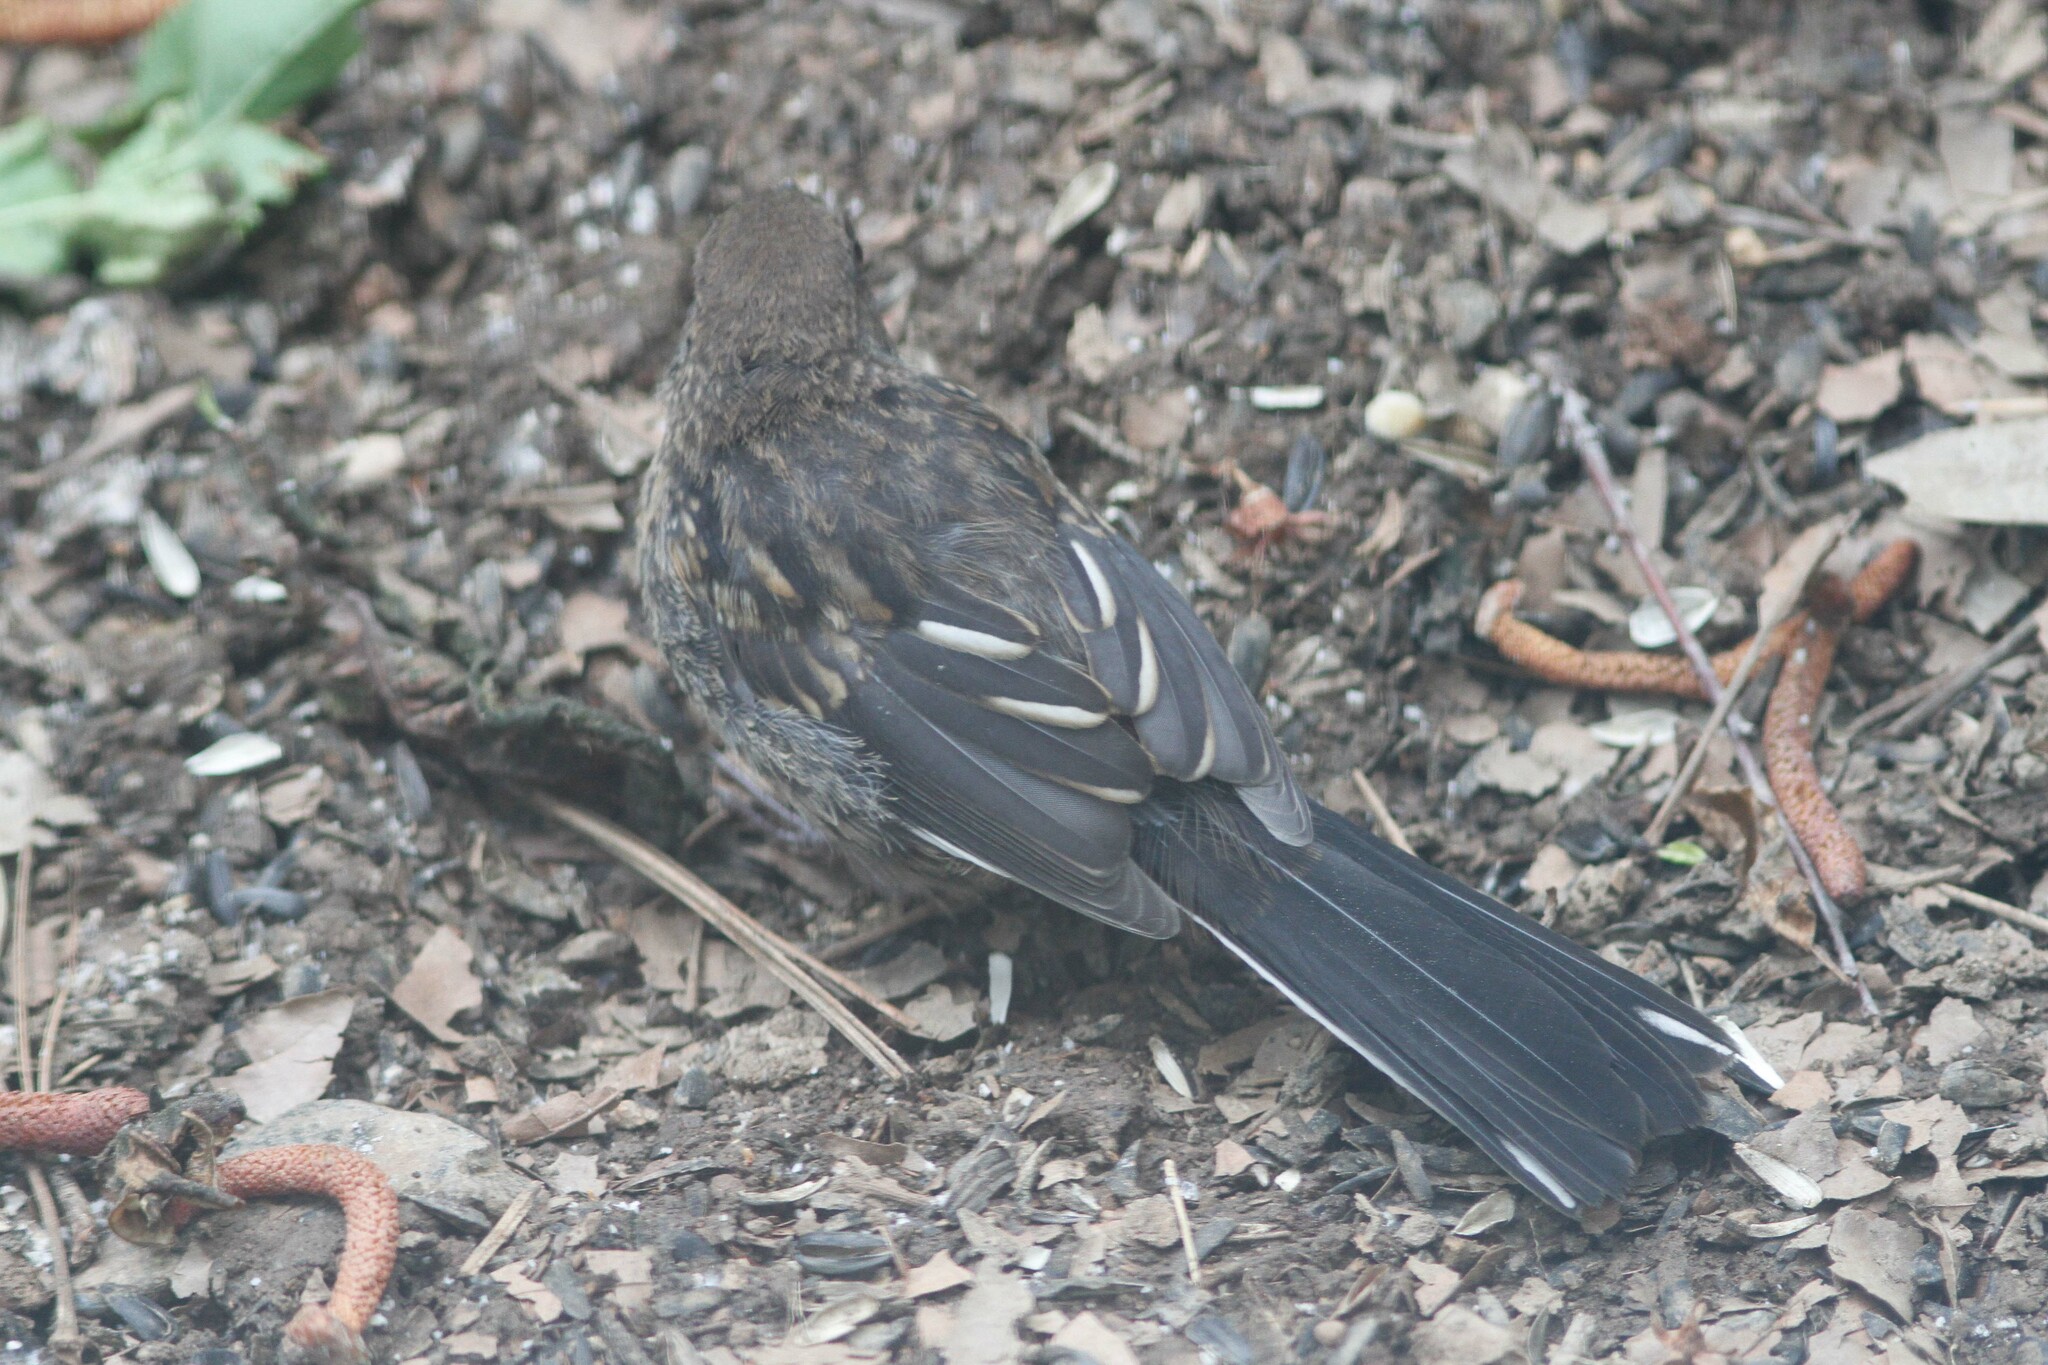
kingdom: Animalia
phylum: Chordata
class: Aves
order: Passeriformes
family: Passerellidae
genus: Pipilo
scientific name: Pipilo maculatus
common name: Spotted towhee
